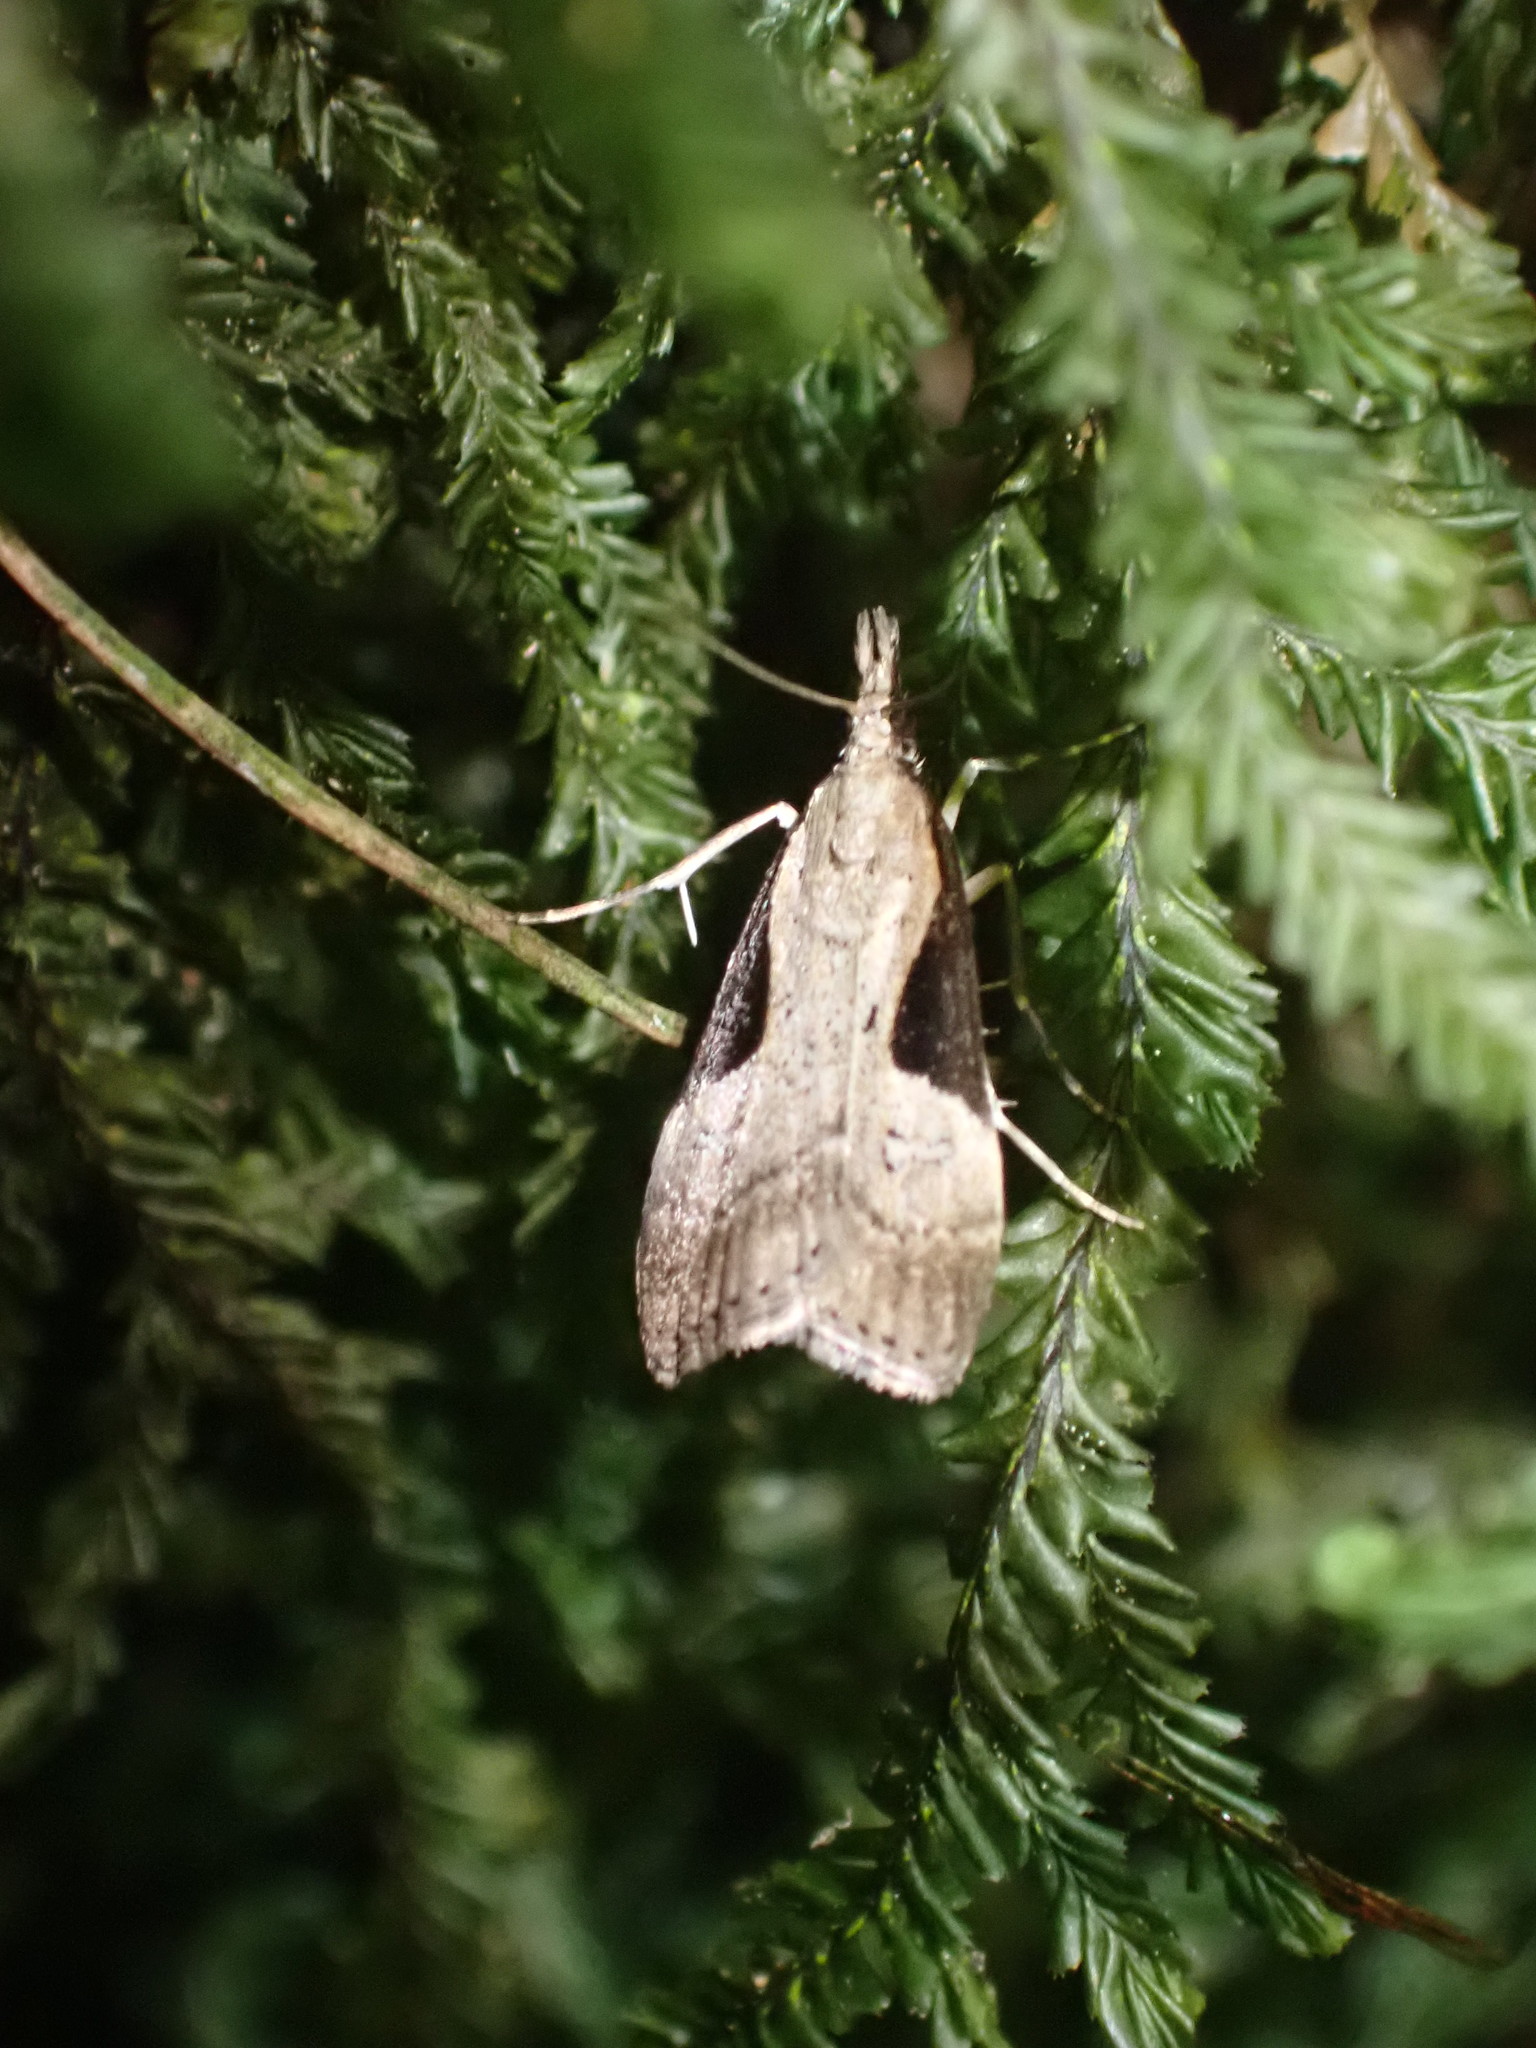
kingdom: Animalia
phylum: Arthropoda
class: Insecta
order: Lepidoptera
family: Crambidae
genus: Eudonia
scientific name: Eudonia pongalis
